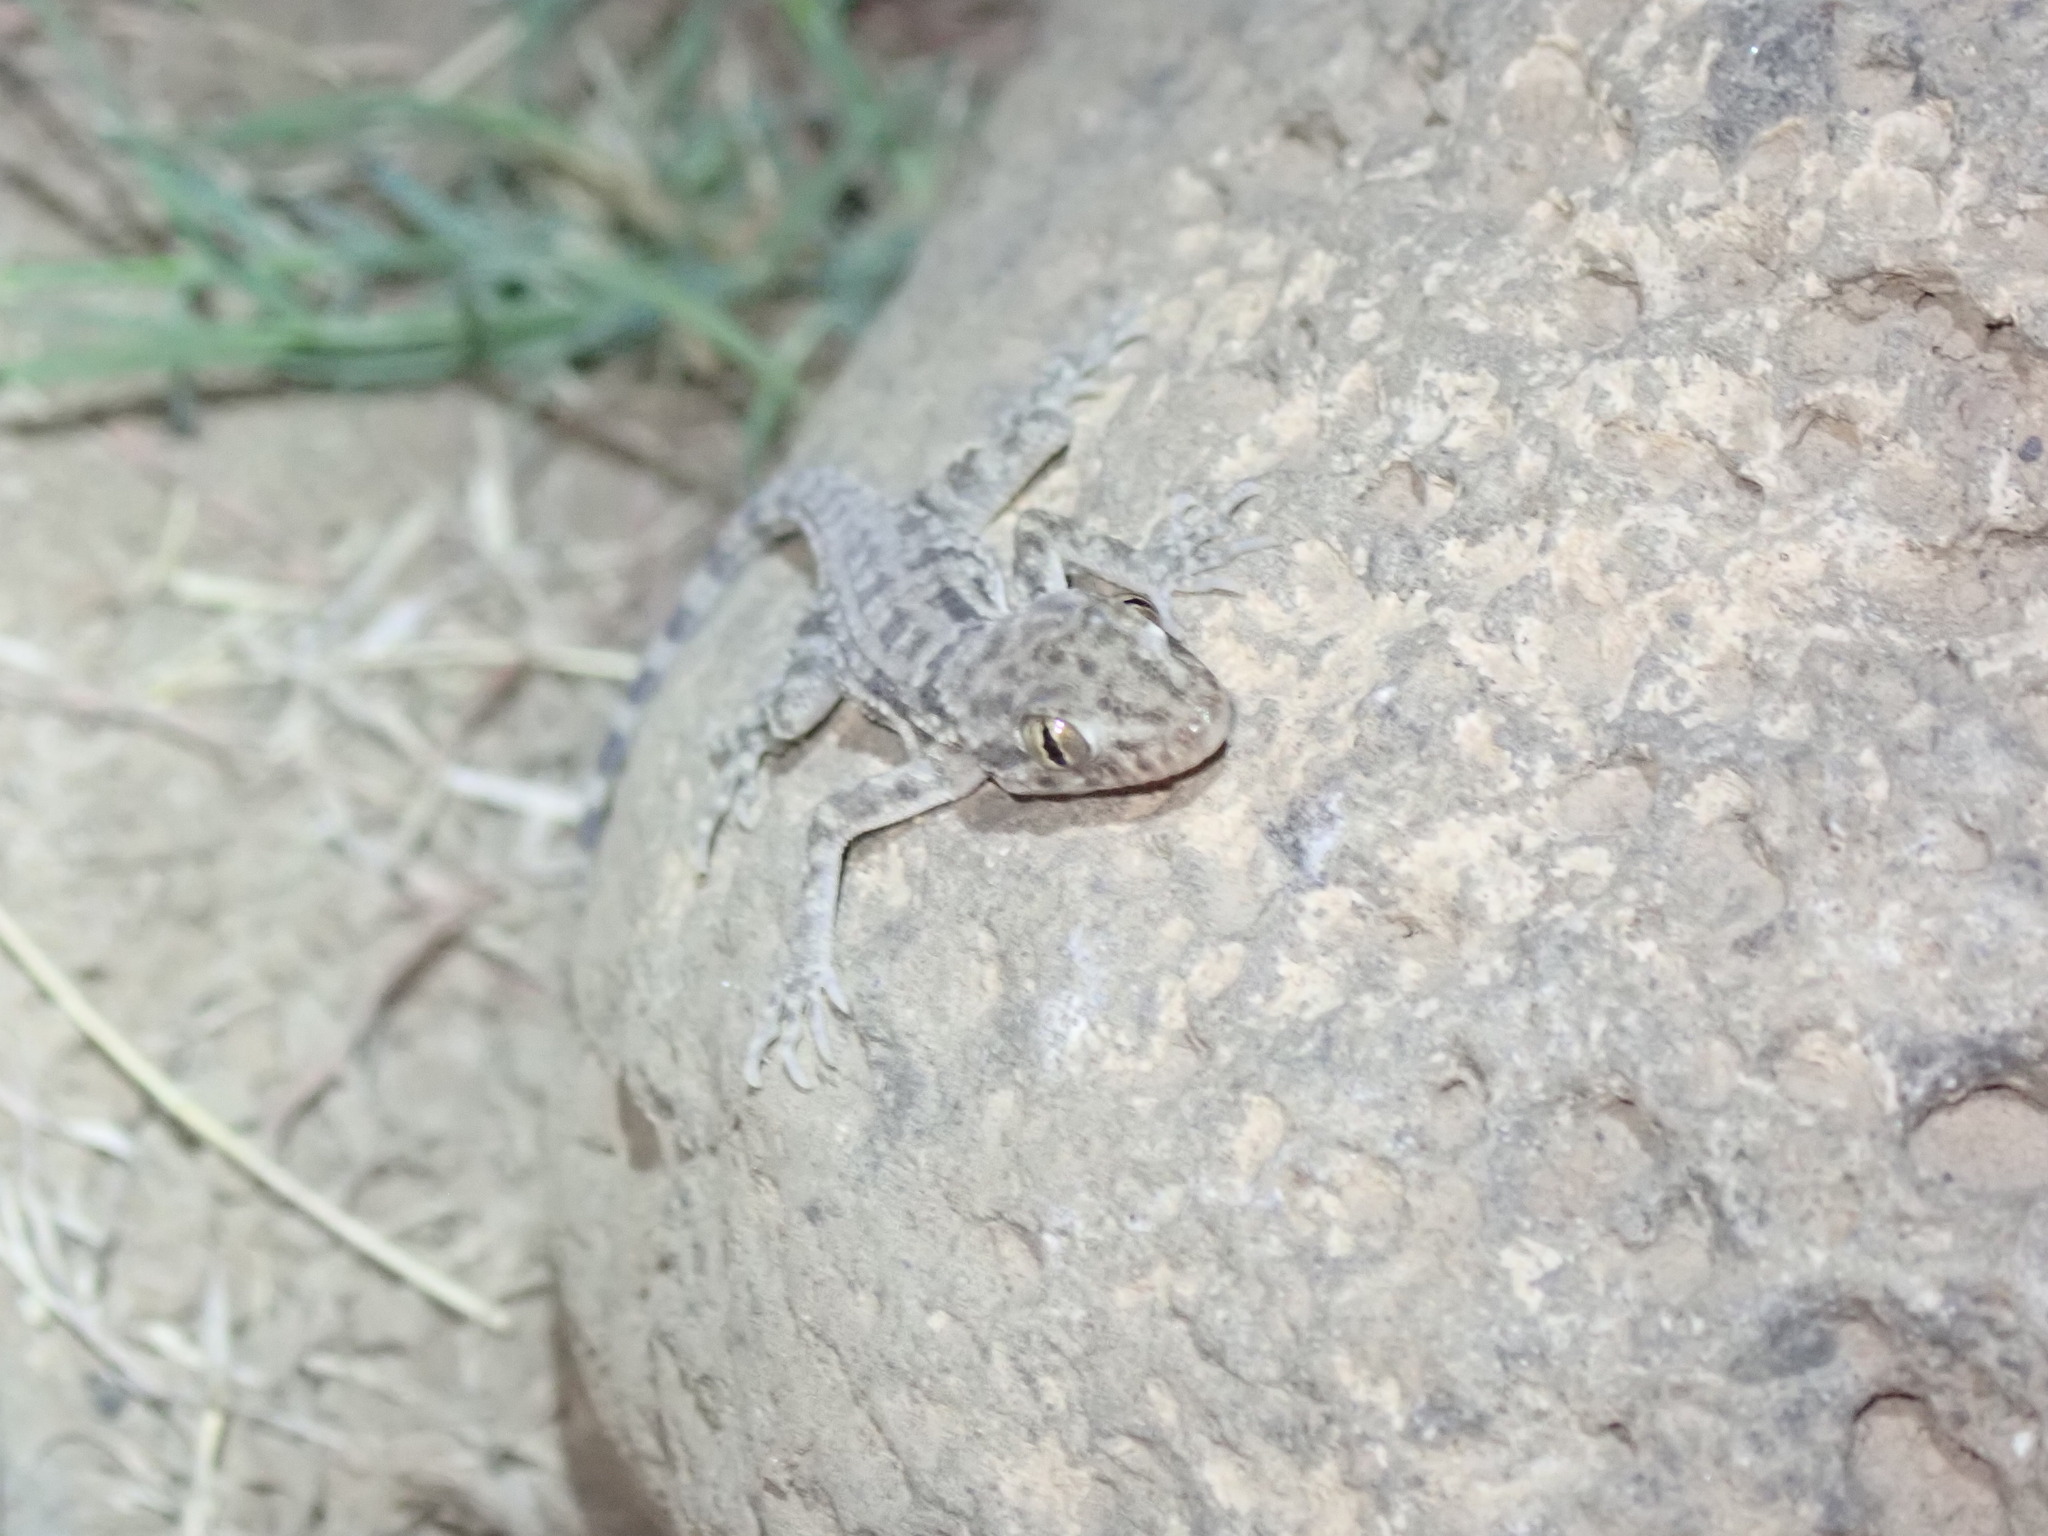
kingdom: Animalia
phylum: Chordata
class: Squamata
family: Gekkonidae
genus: Cyrtopodion
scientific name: Cyrtopodion scabrum
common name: Rough-tailed gecko
